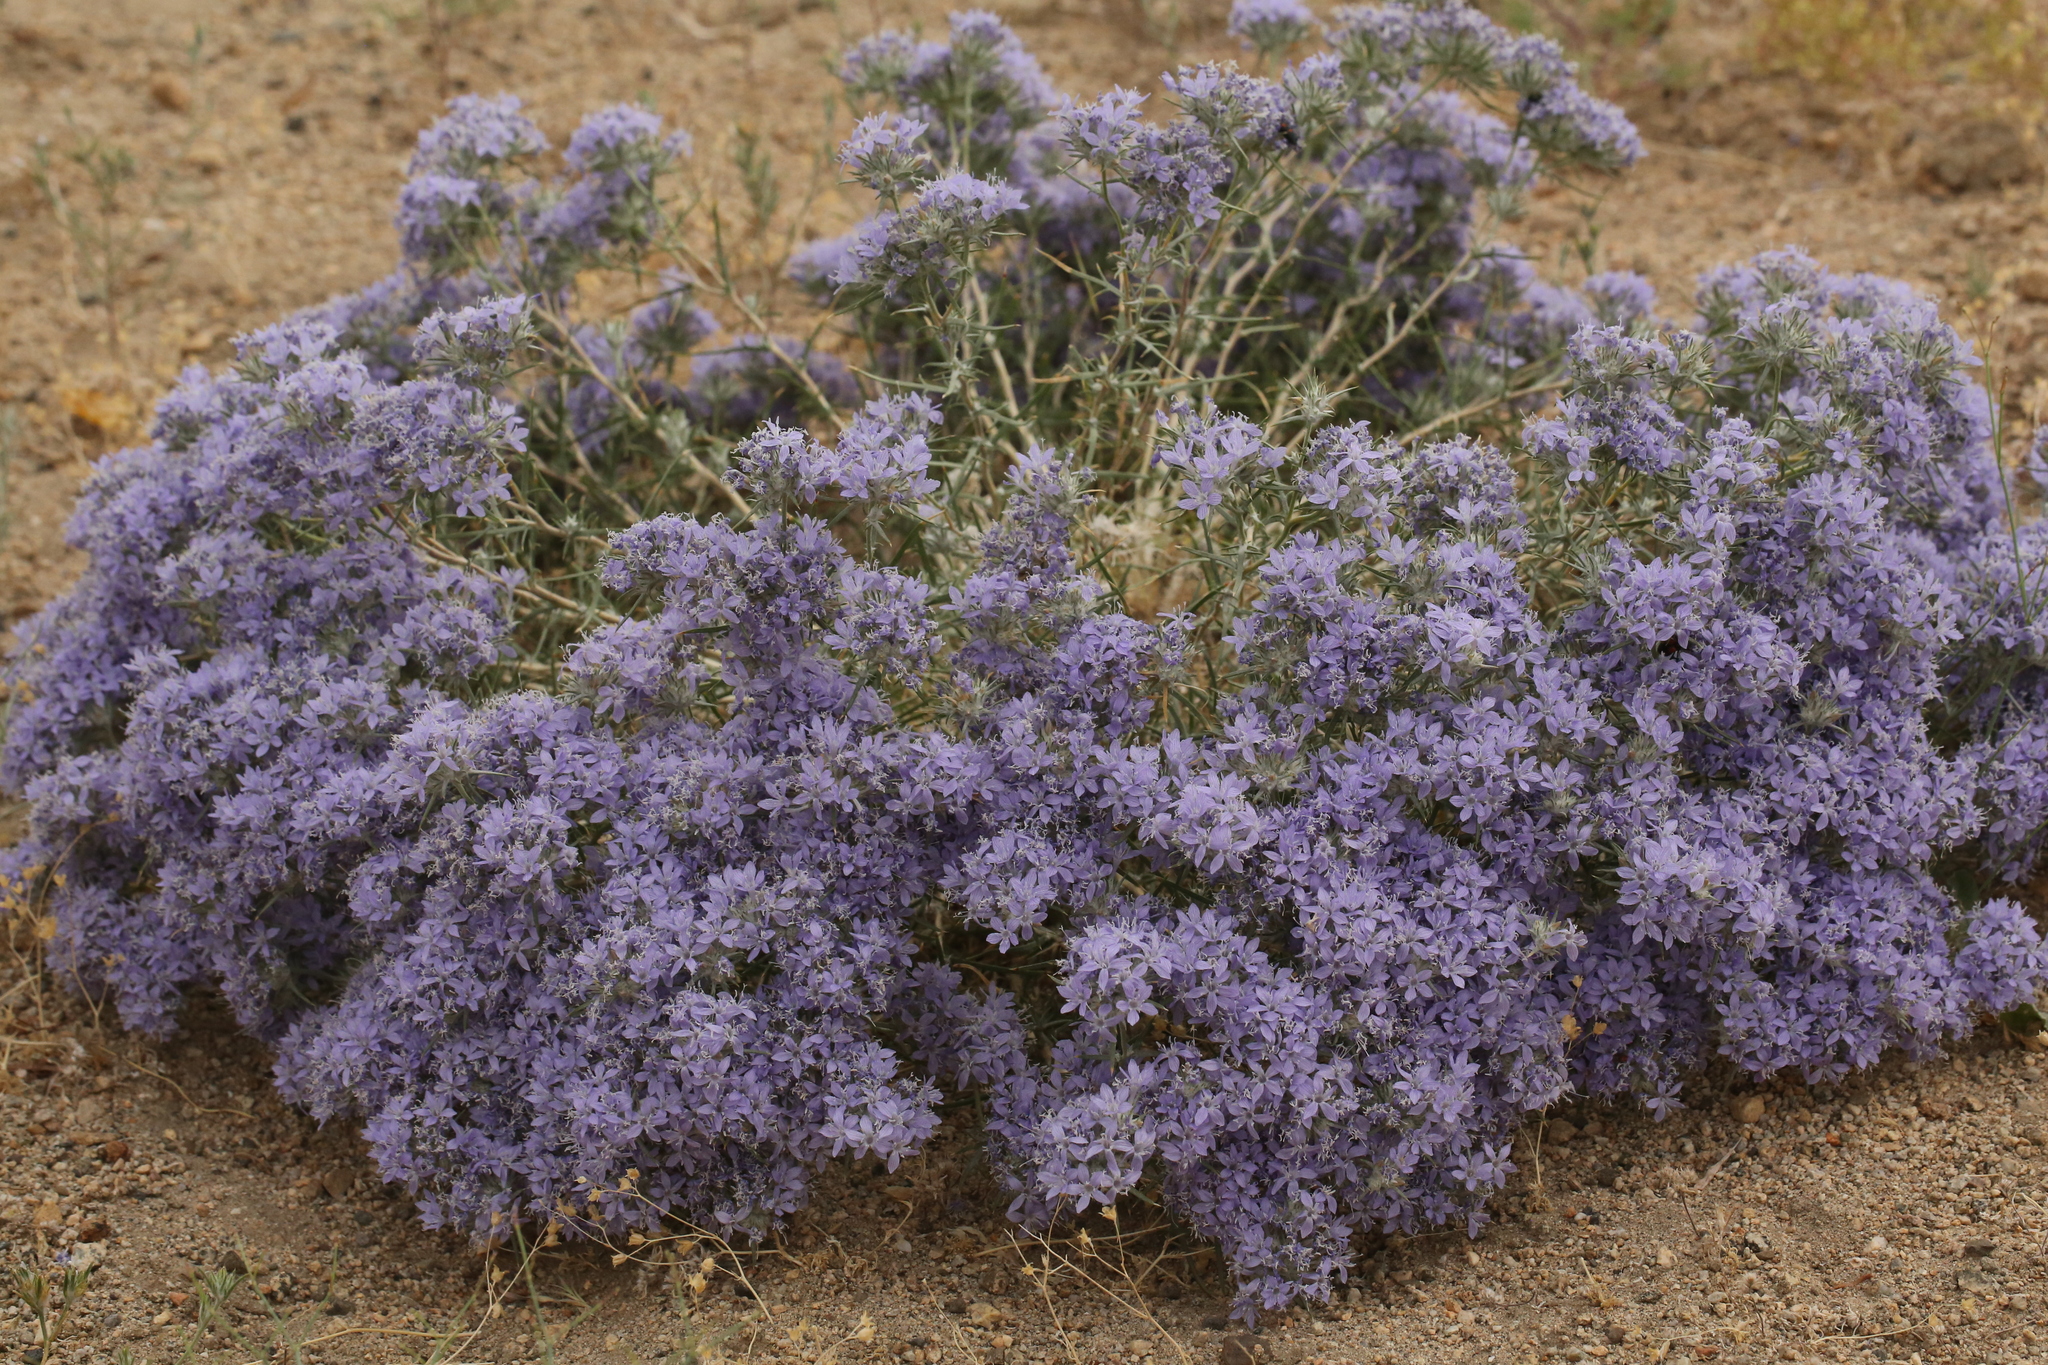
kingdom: Plantae
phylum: Tracheophyta
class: Magnoliopsida
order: Ericales
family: Polemoniaceae
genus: Eriastrum
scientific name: Eriastrum densifolium
